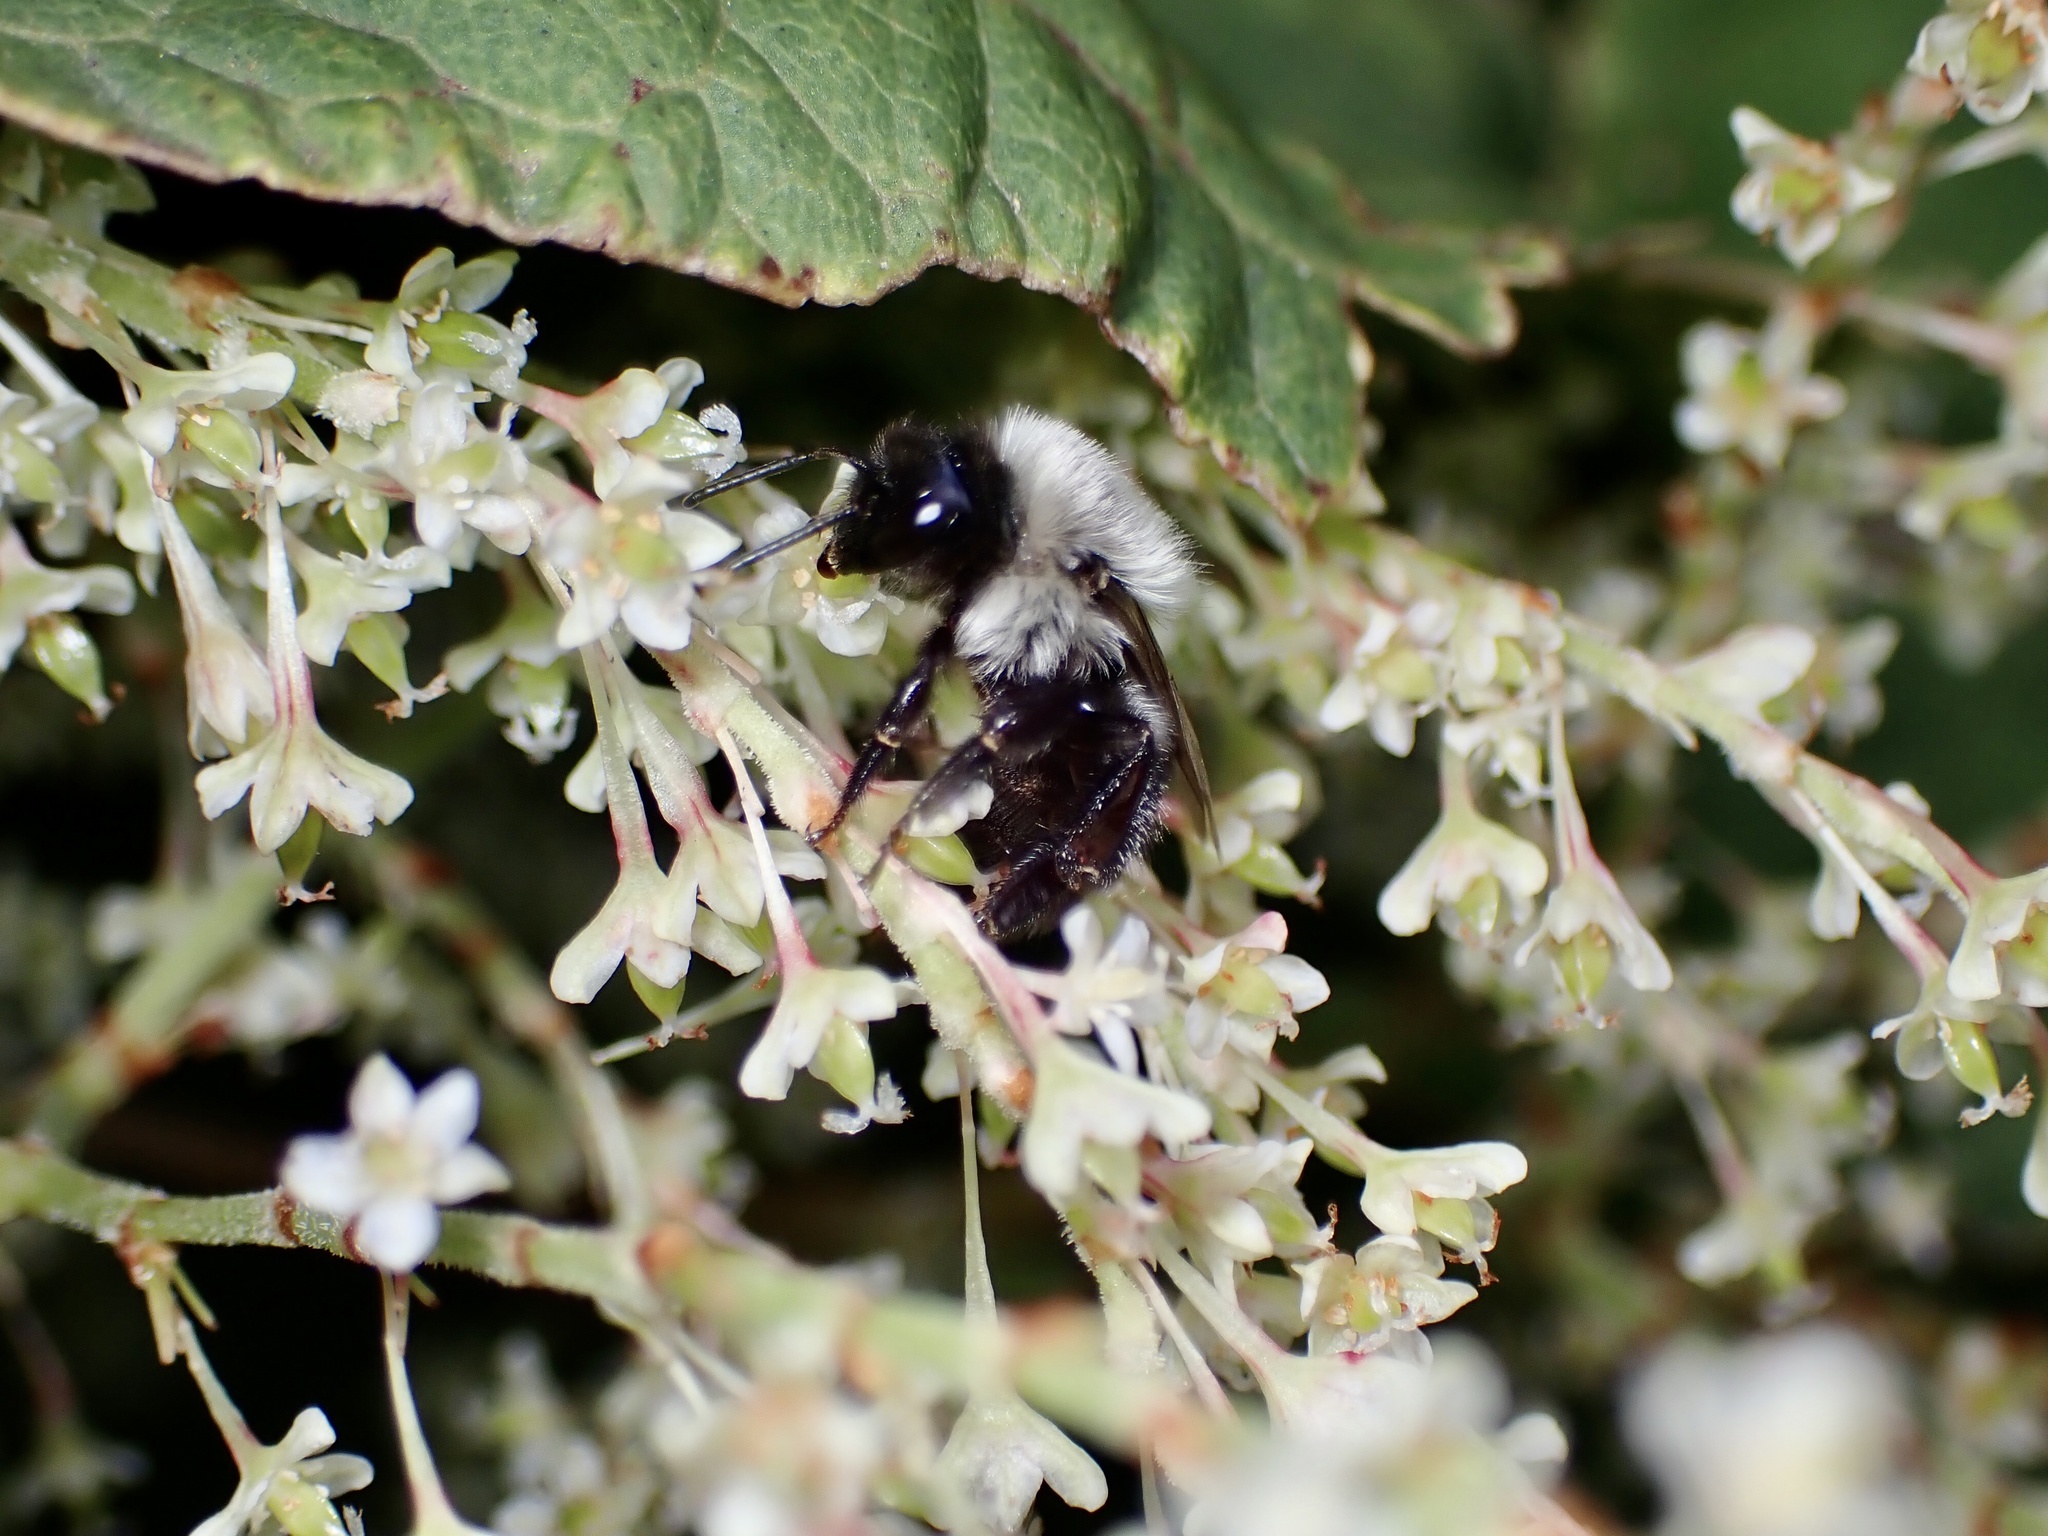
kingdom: Animalia
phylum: Arthropoda
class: Insecta
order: Hymenoptera
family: Apidae
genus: Bombus
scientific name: Bombus impatiens
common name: Common eastern bumble bee
